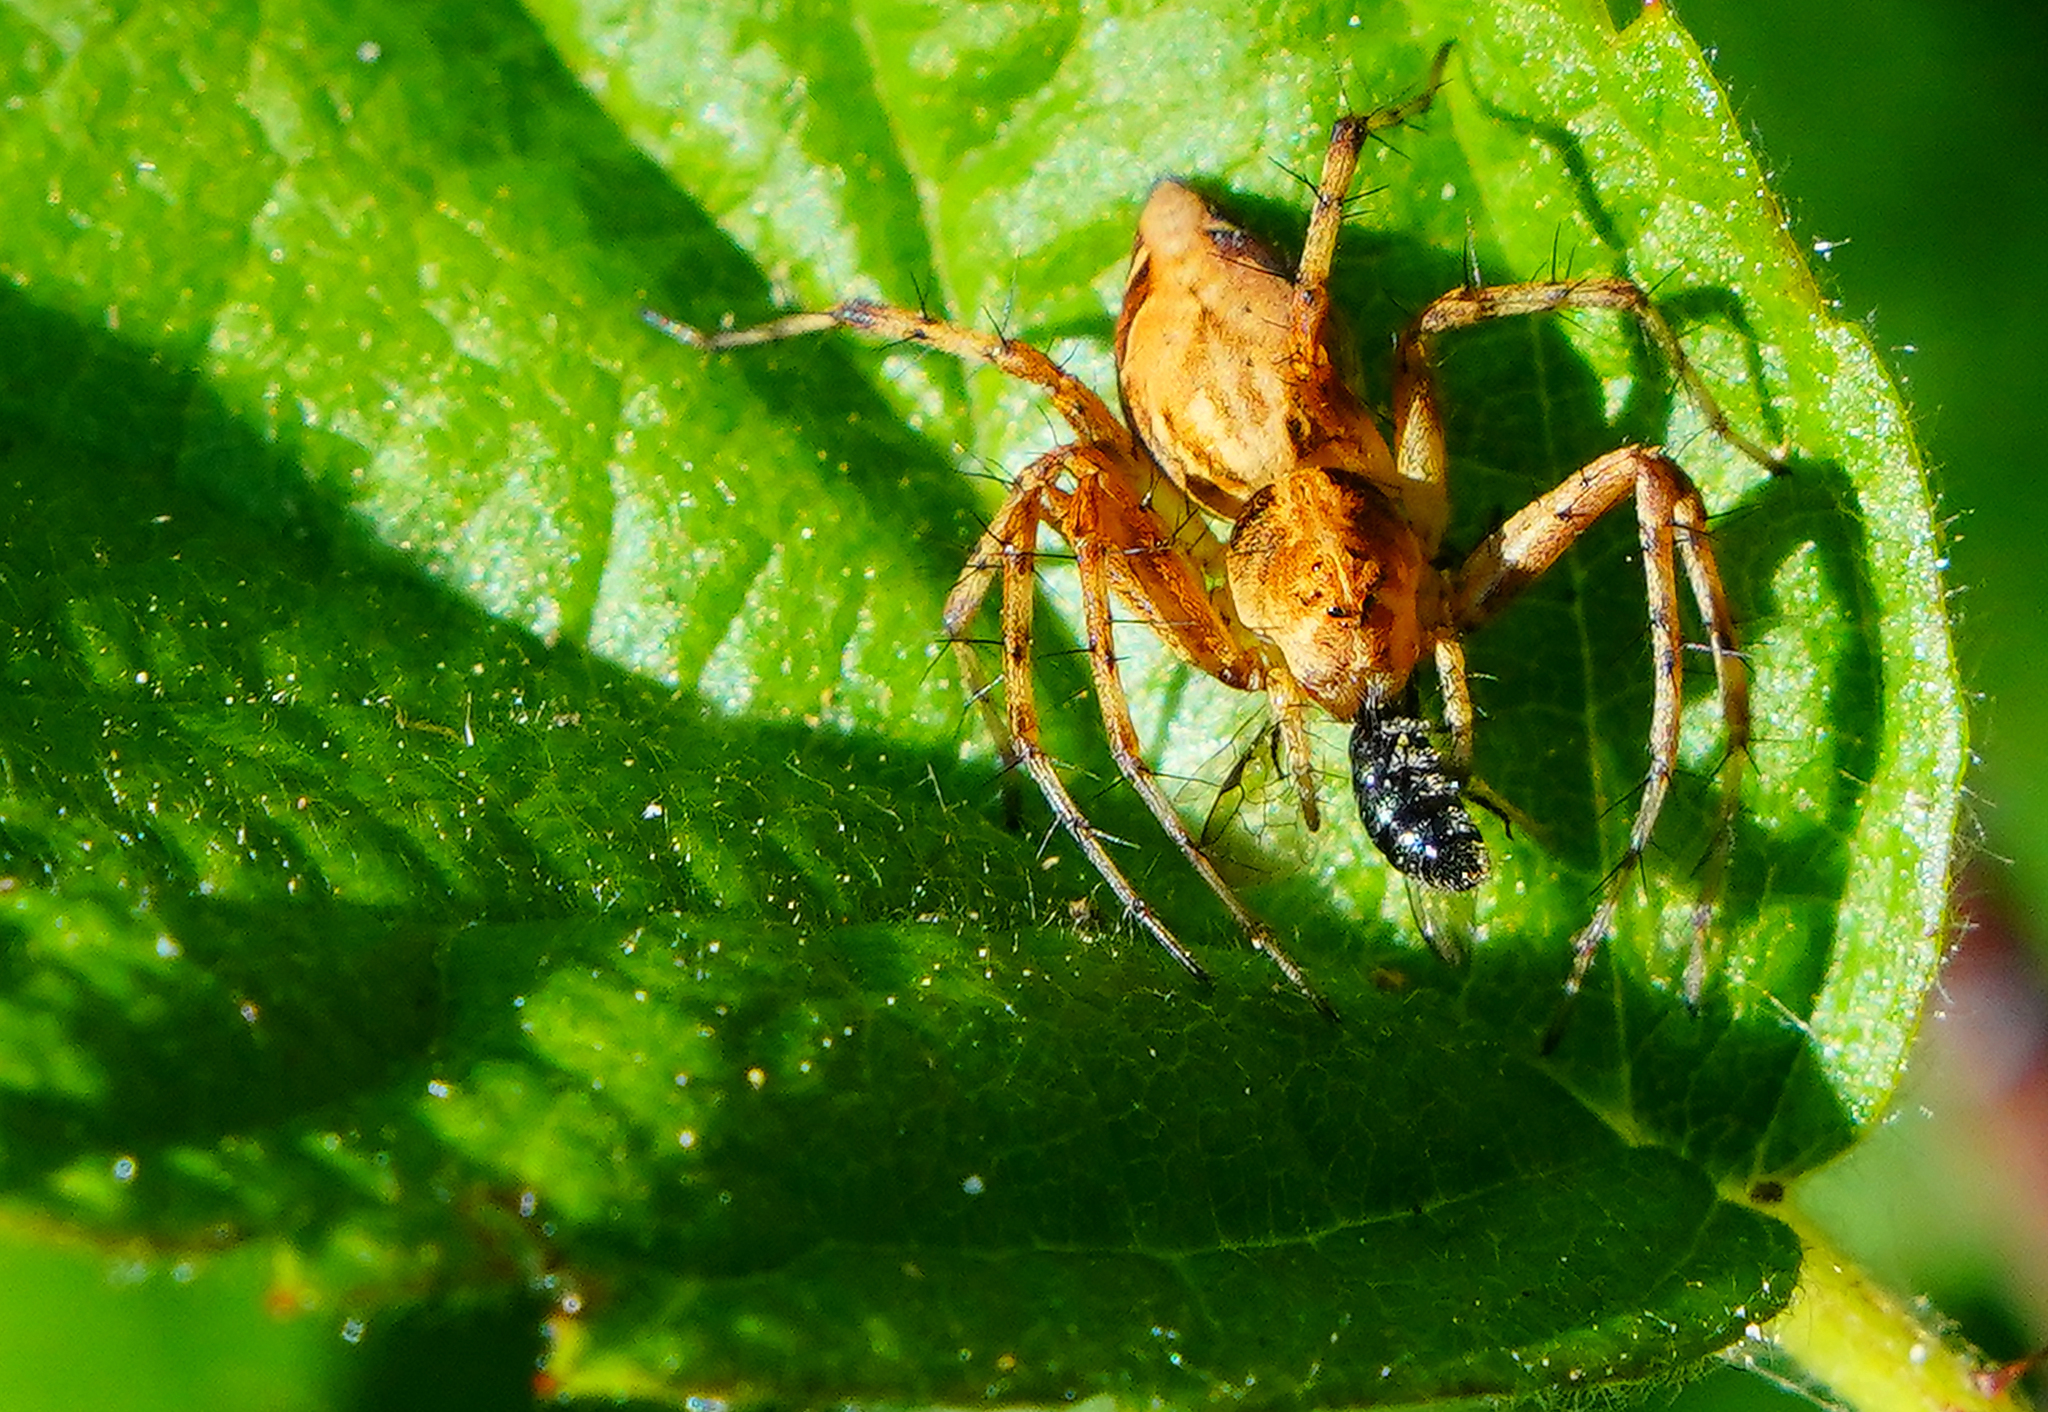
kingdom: Animalia
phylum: Arthropoda
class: Arachnida
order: Araneae
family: Oxyopidae
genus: Oxyopes
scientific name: Oxyopes scalaris
